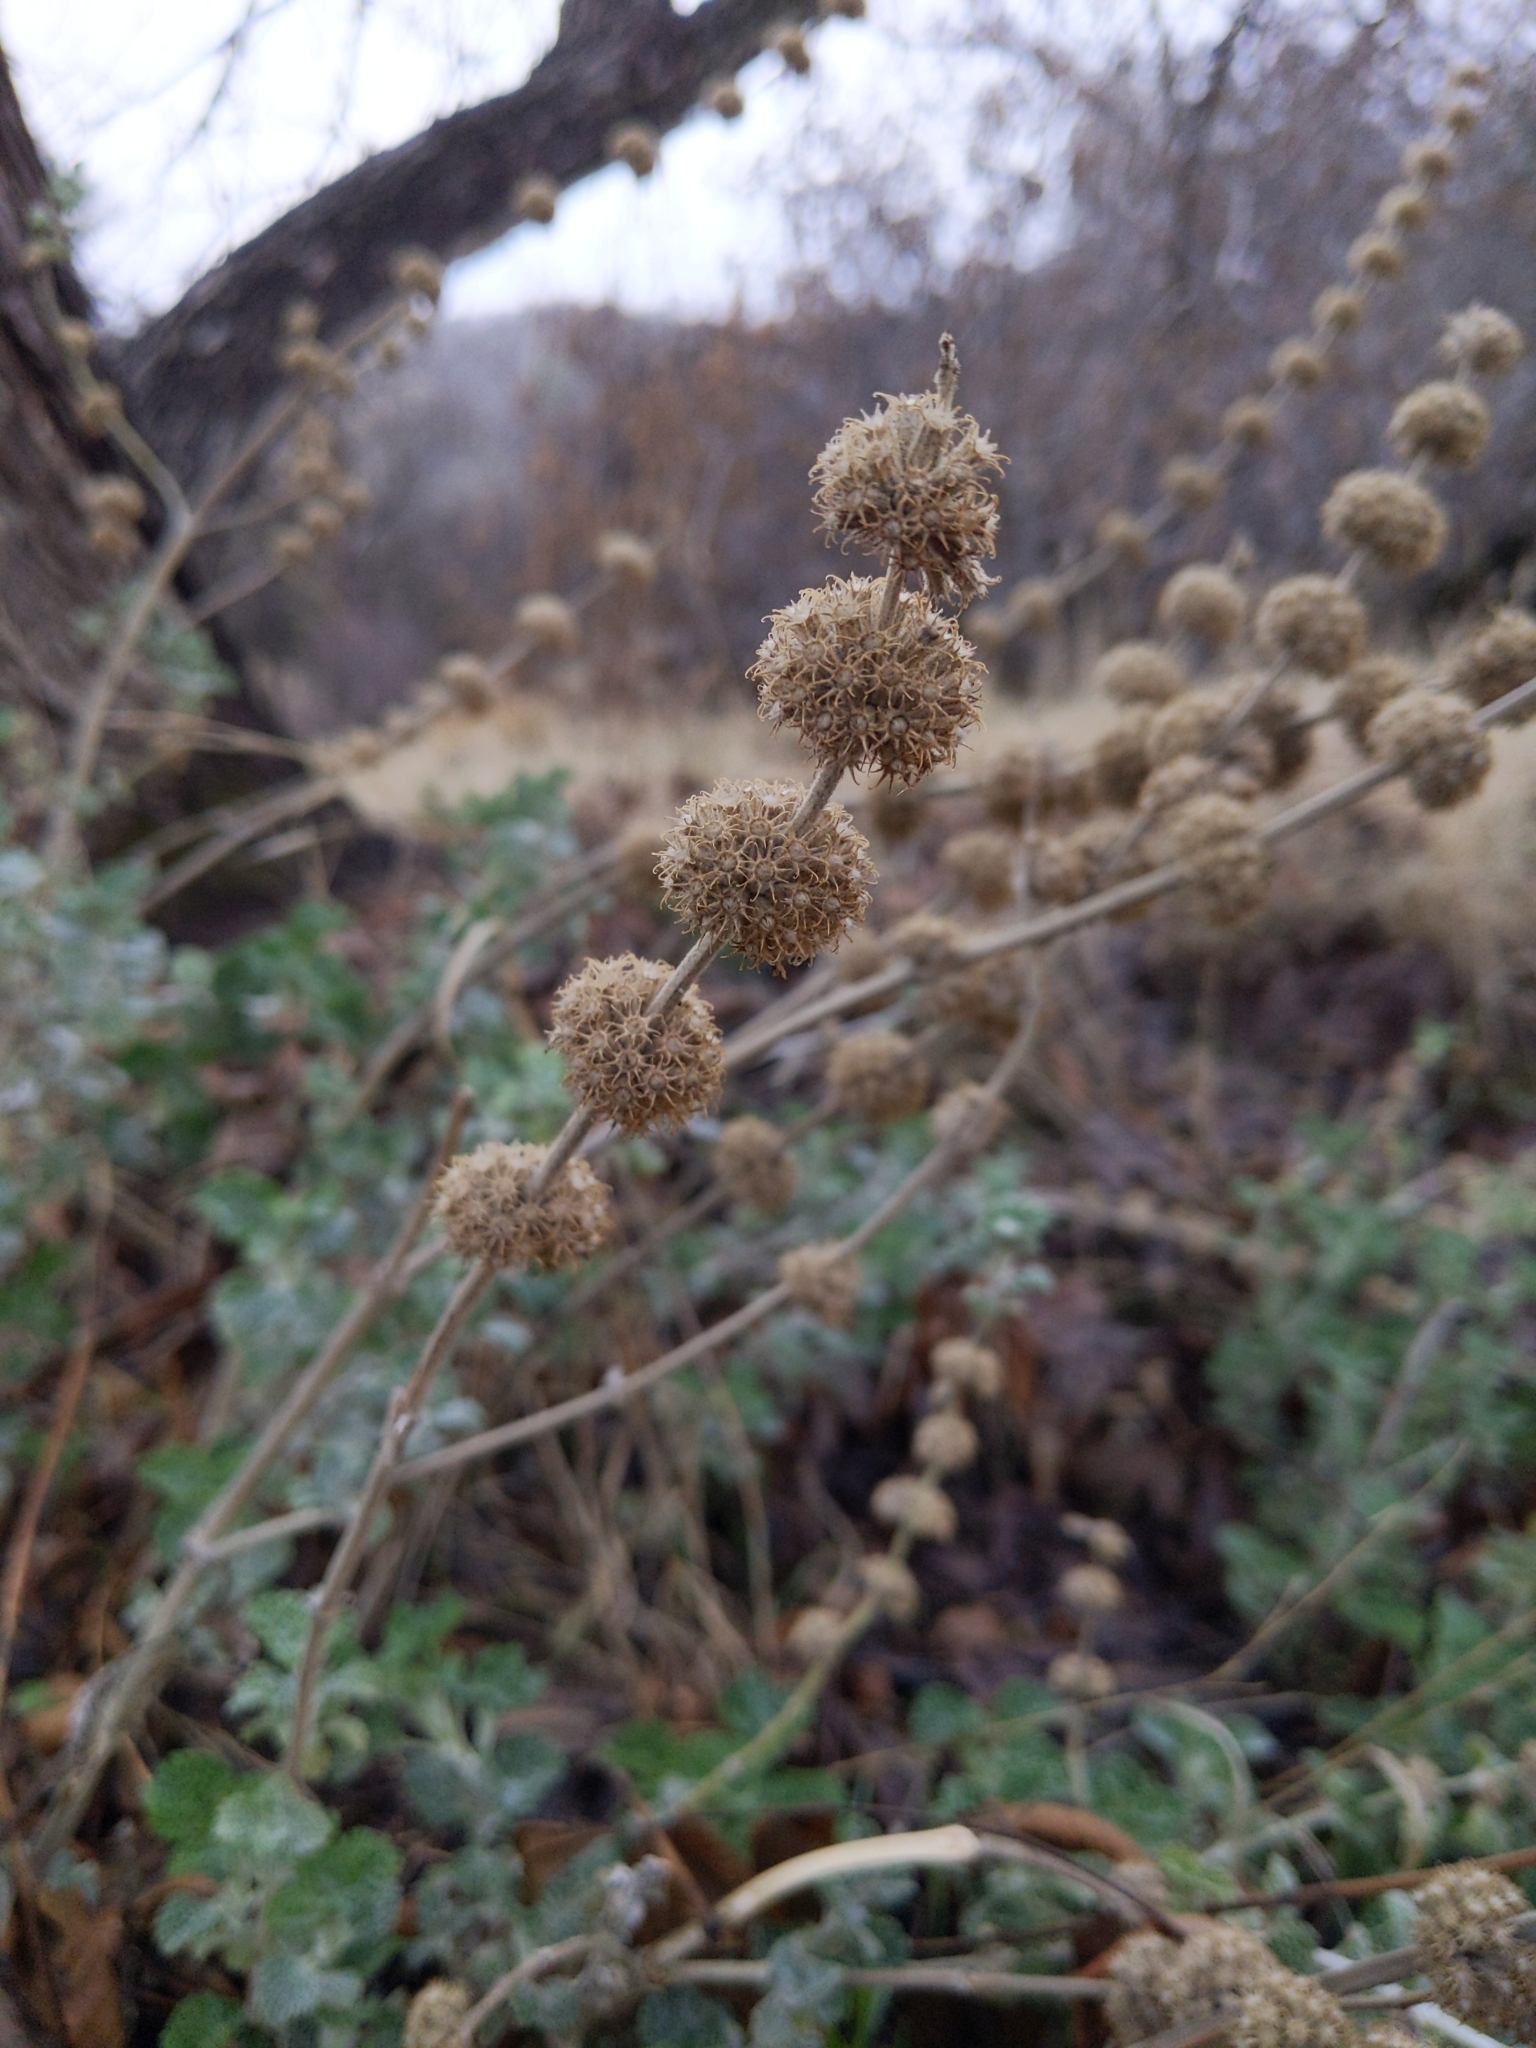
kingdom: Plantae
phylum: Tracheophyta
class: Magnoliopsida
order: Lamiales
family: Lamiaceae
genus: Marrubium
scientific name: Marrubium vulgare
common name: Horehound
